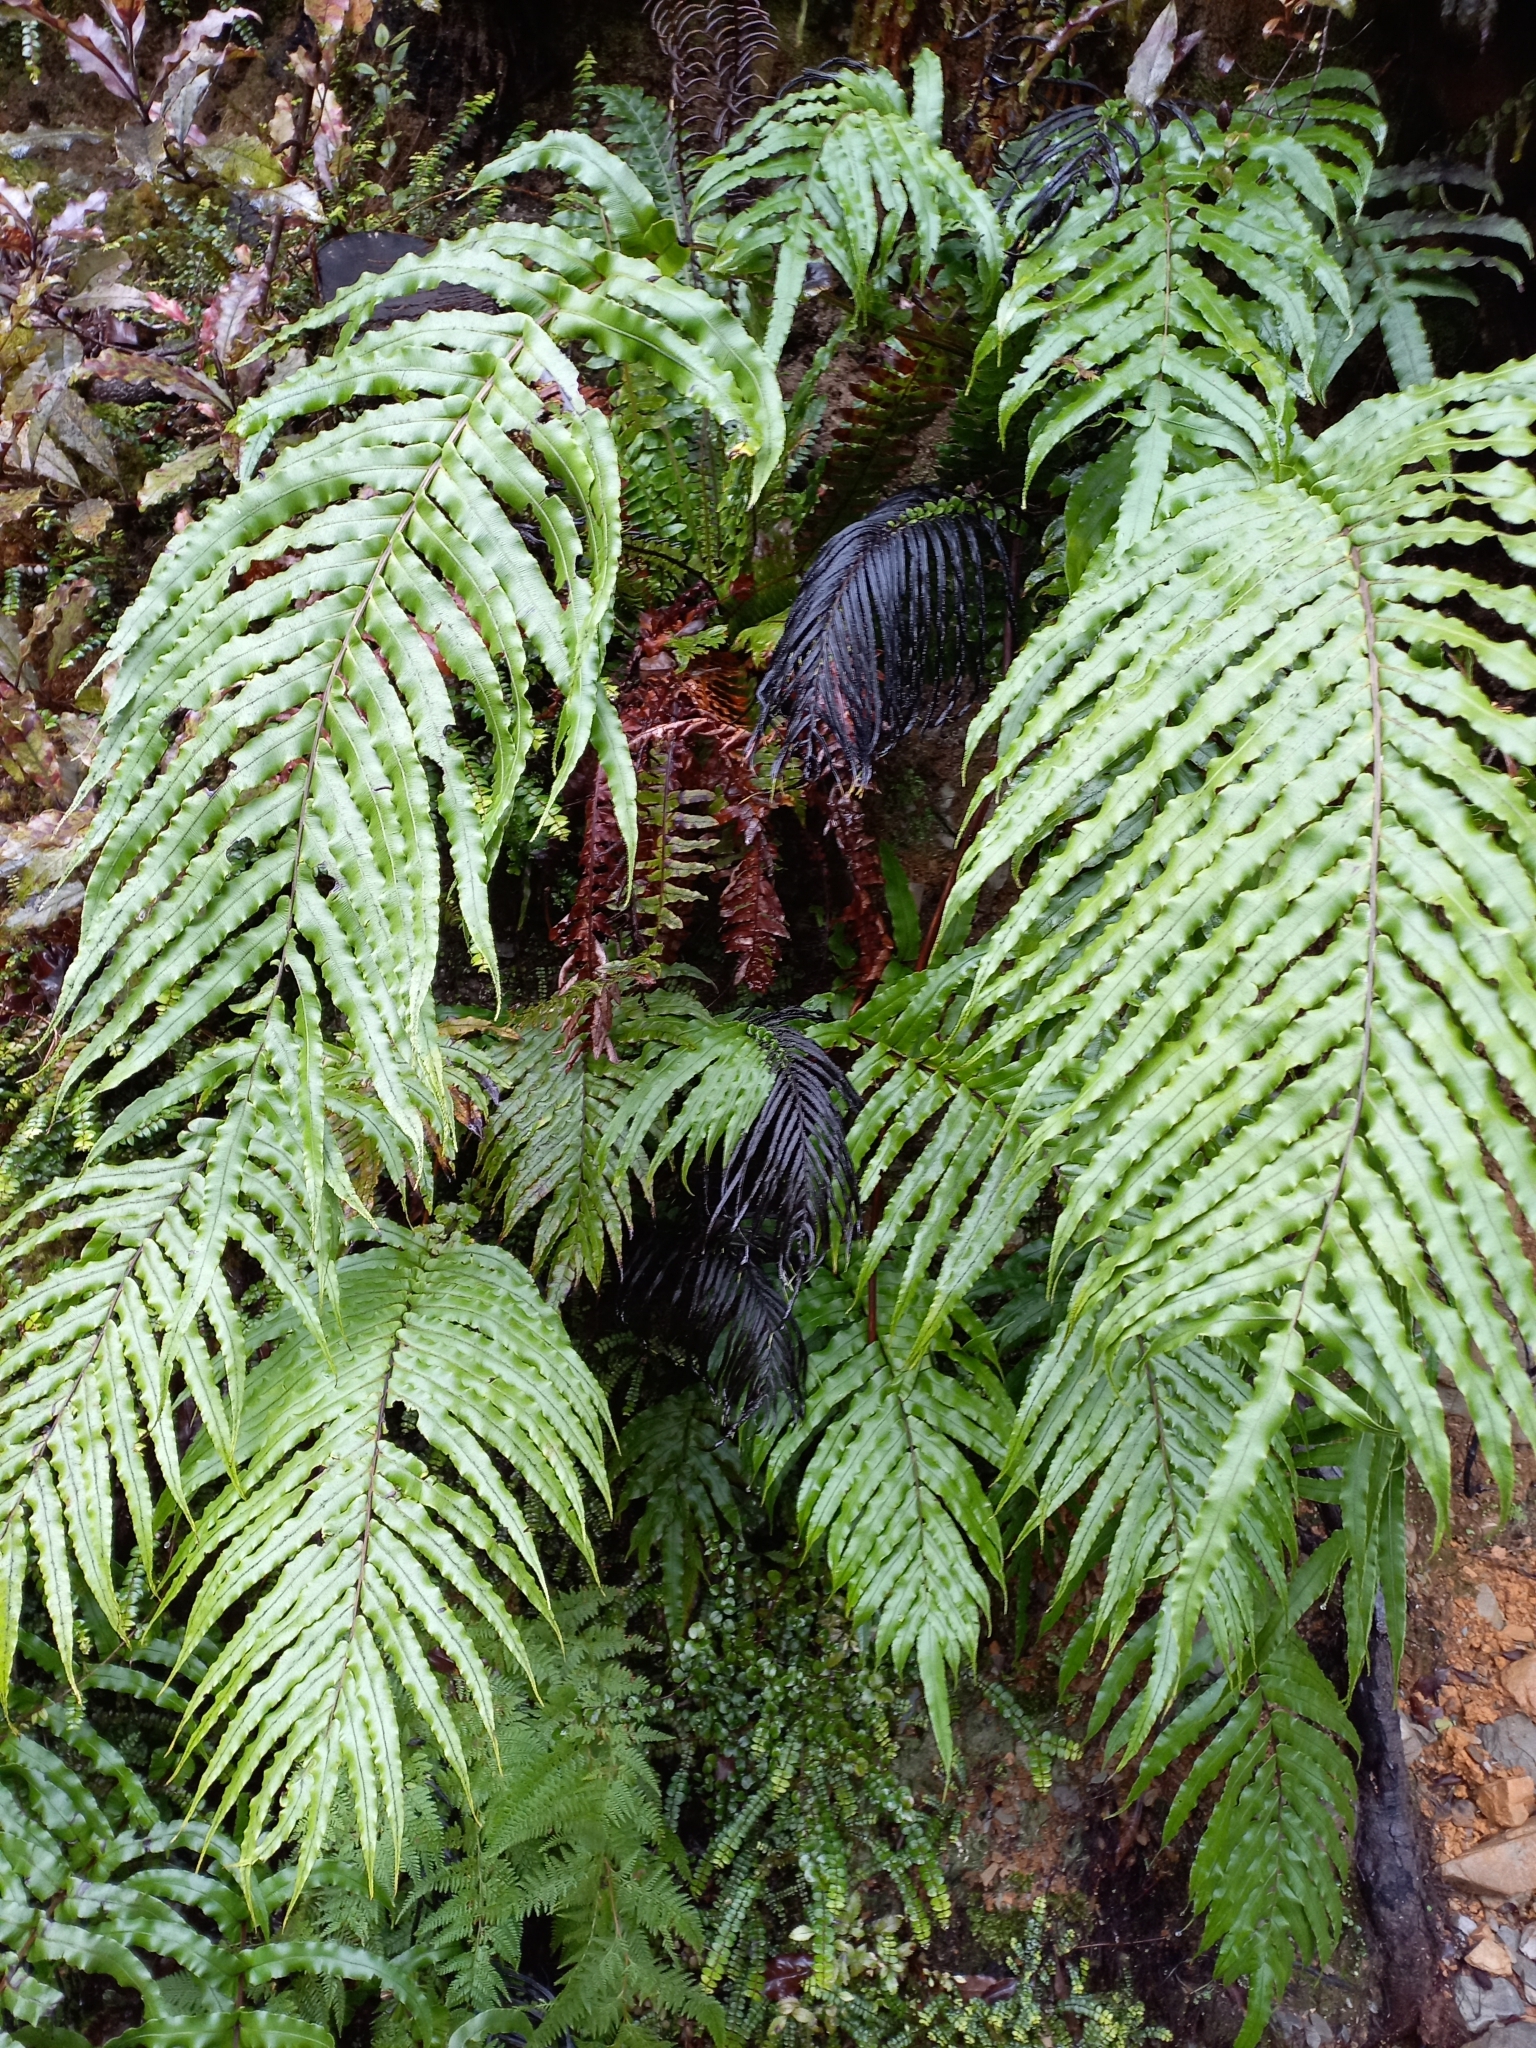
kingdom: Plantae
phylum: Tracheophyta
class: Polypodiopsida
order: Polypodiales
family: Blechnaceae
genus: Parablechnum
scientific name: Parablechnum novae-zelandiae
